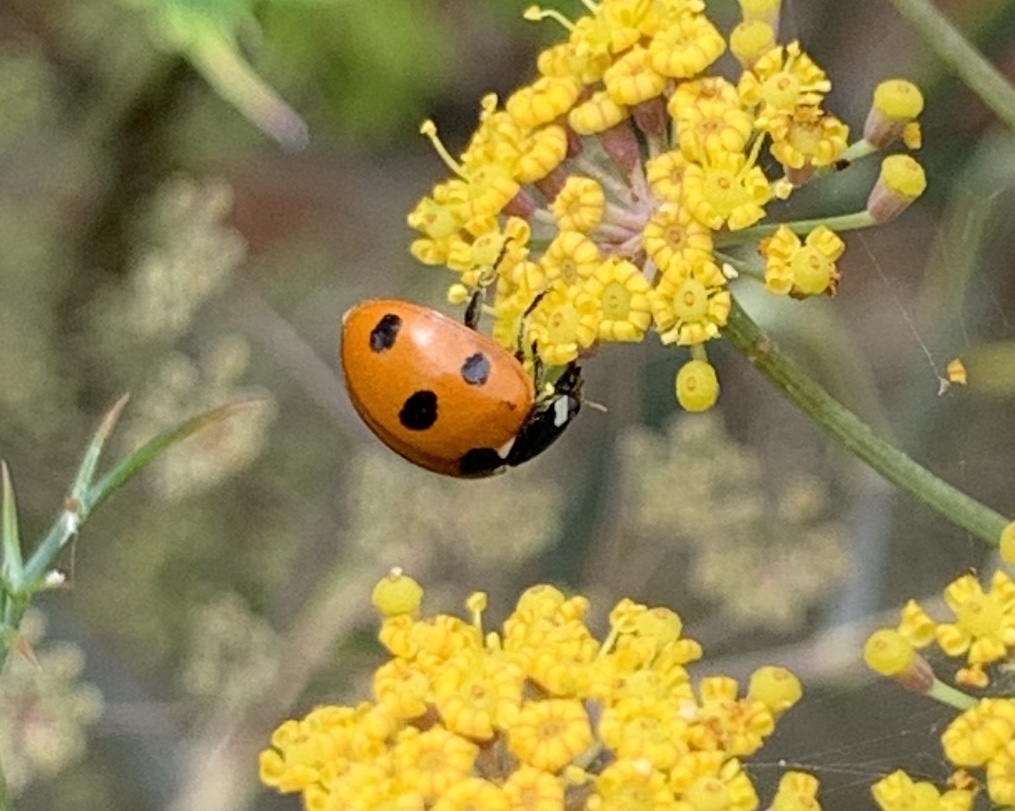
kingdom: Animalia
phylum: Arthropoda
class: Insecta
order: Coleoptera
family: Coccinellidae
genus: Coccinella
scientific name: Coccinella septempunctata
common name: Sevenspotted lady beetle
